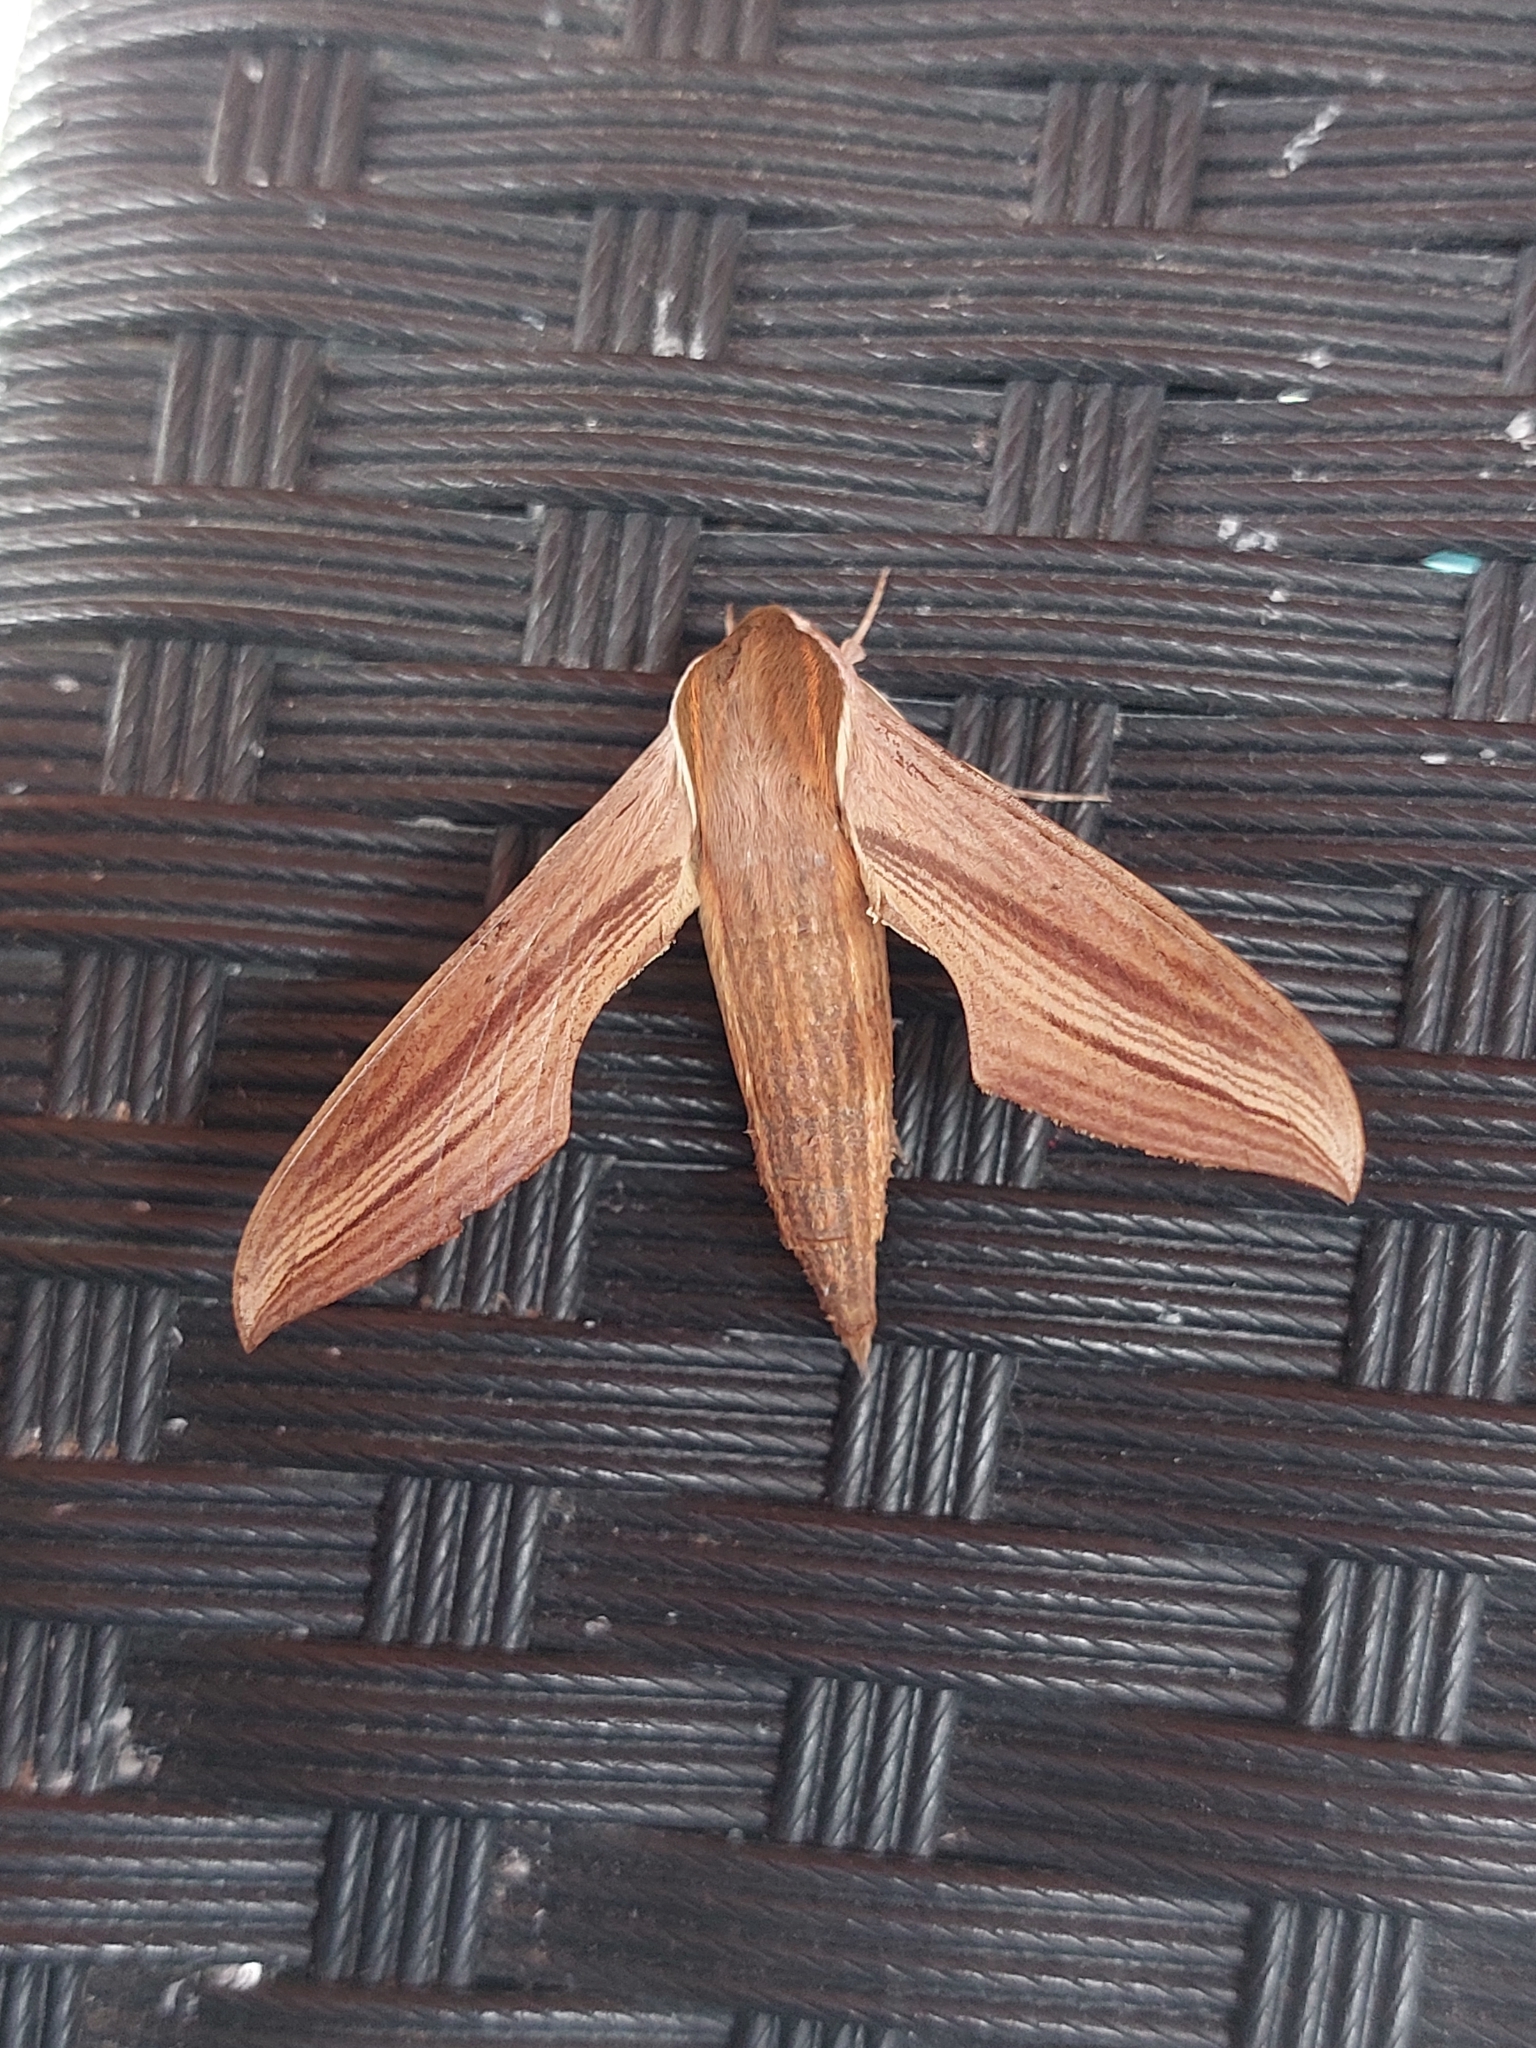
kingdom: Animalia
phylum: Arthropoda
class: Insecta
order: Lepidoptera
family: Sphingidae
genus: Xylophanes
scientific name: Xylophanes tersa
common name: Tersa sphinx
